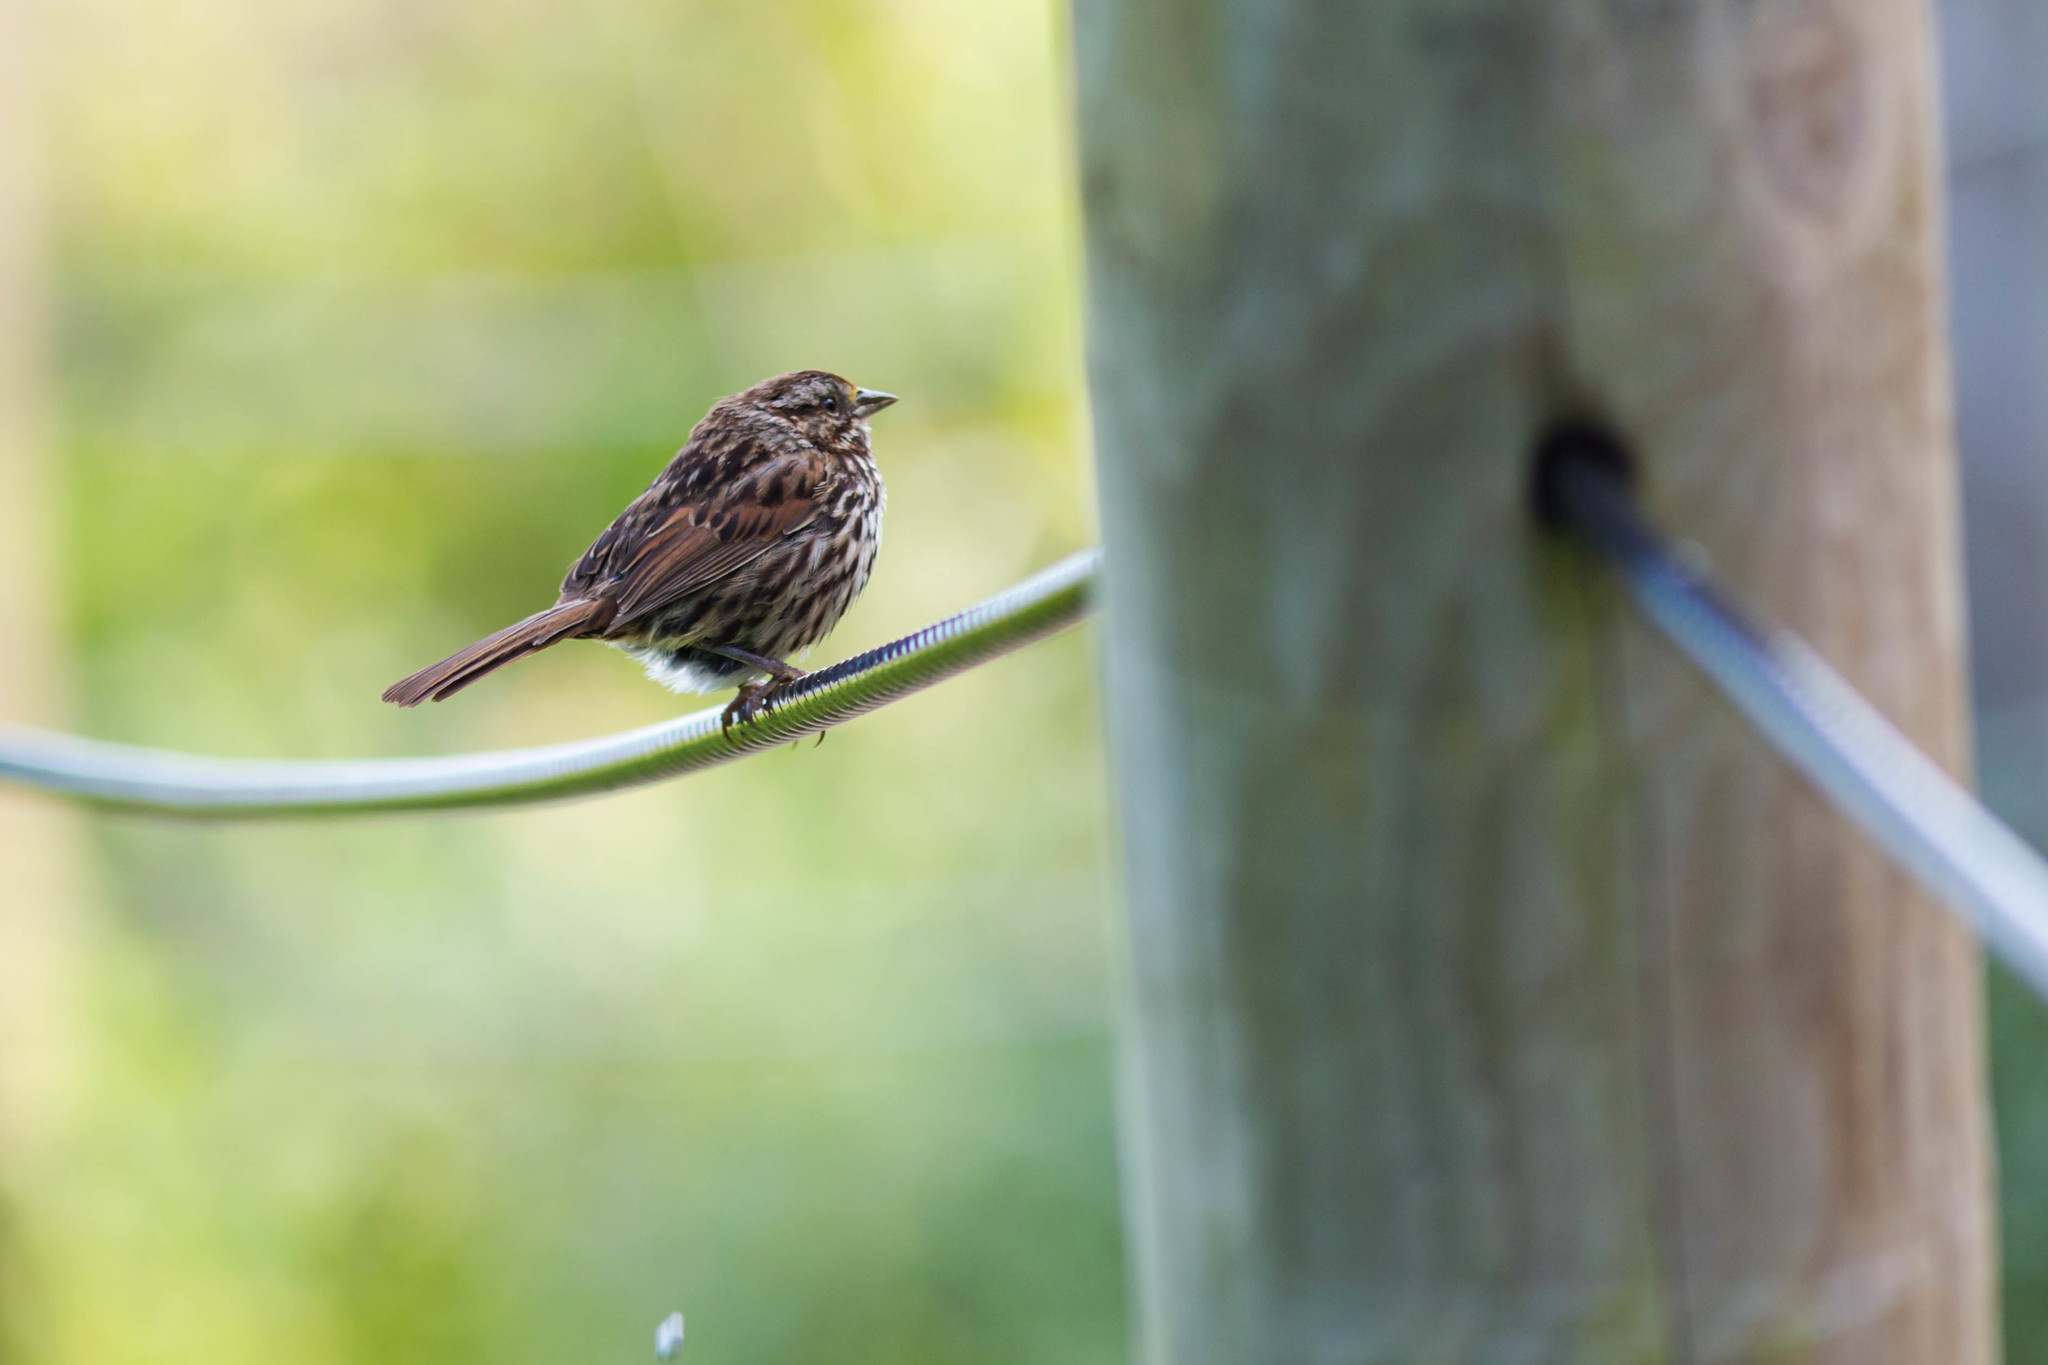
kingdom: Animalia
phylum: Chordata
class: Aves
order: Passeriformes
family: Passerellidae
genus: Melospiza
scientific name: Melospiza melodia
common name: Song sparrow
